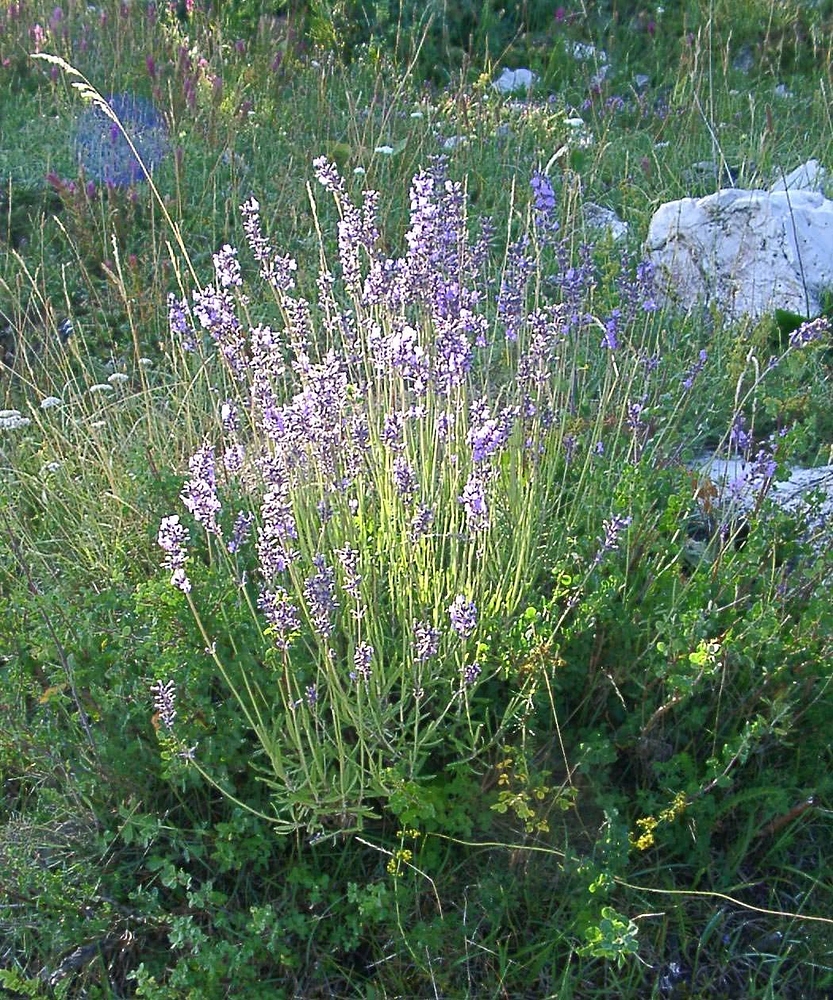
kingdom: Plantae
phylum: Tracheophyta
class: Magnoliopsida
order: Lamiales
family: Lamiaceae
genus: Lavandula
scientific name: Lavandula angustifolia
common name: Garden lavender
